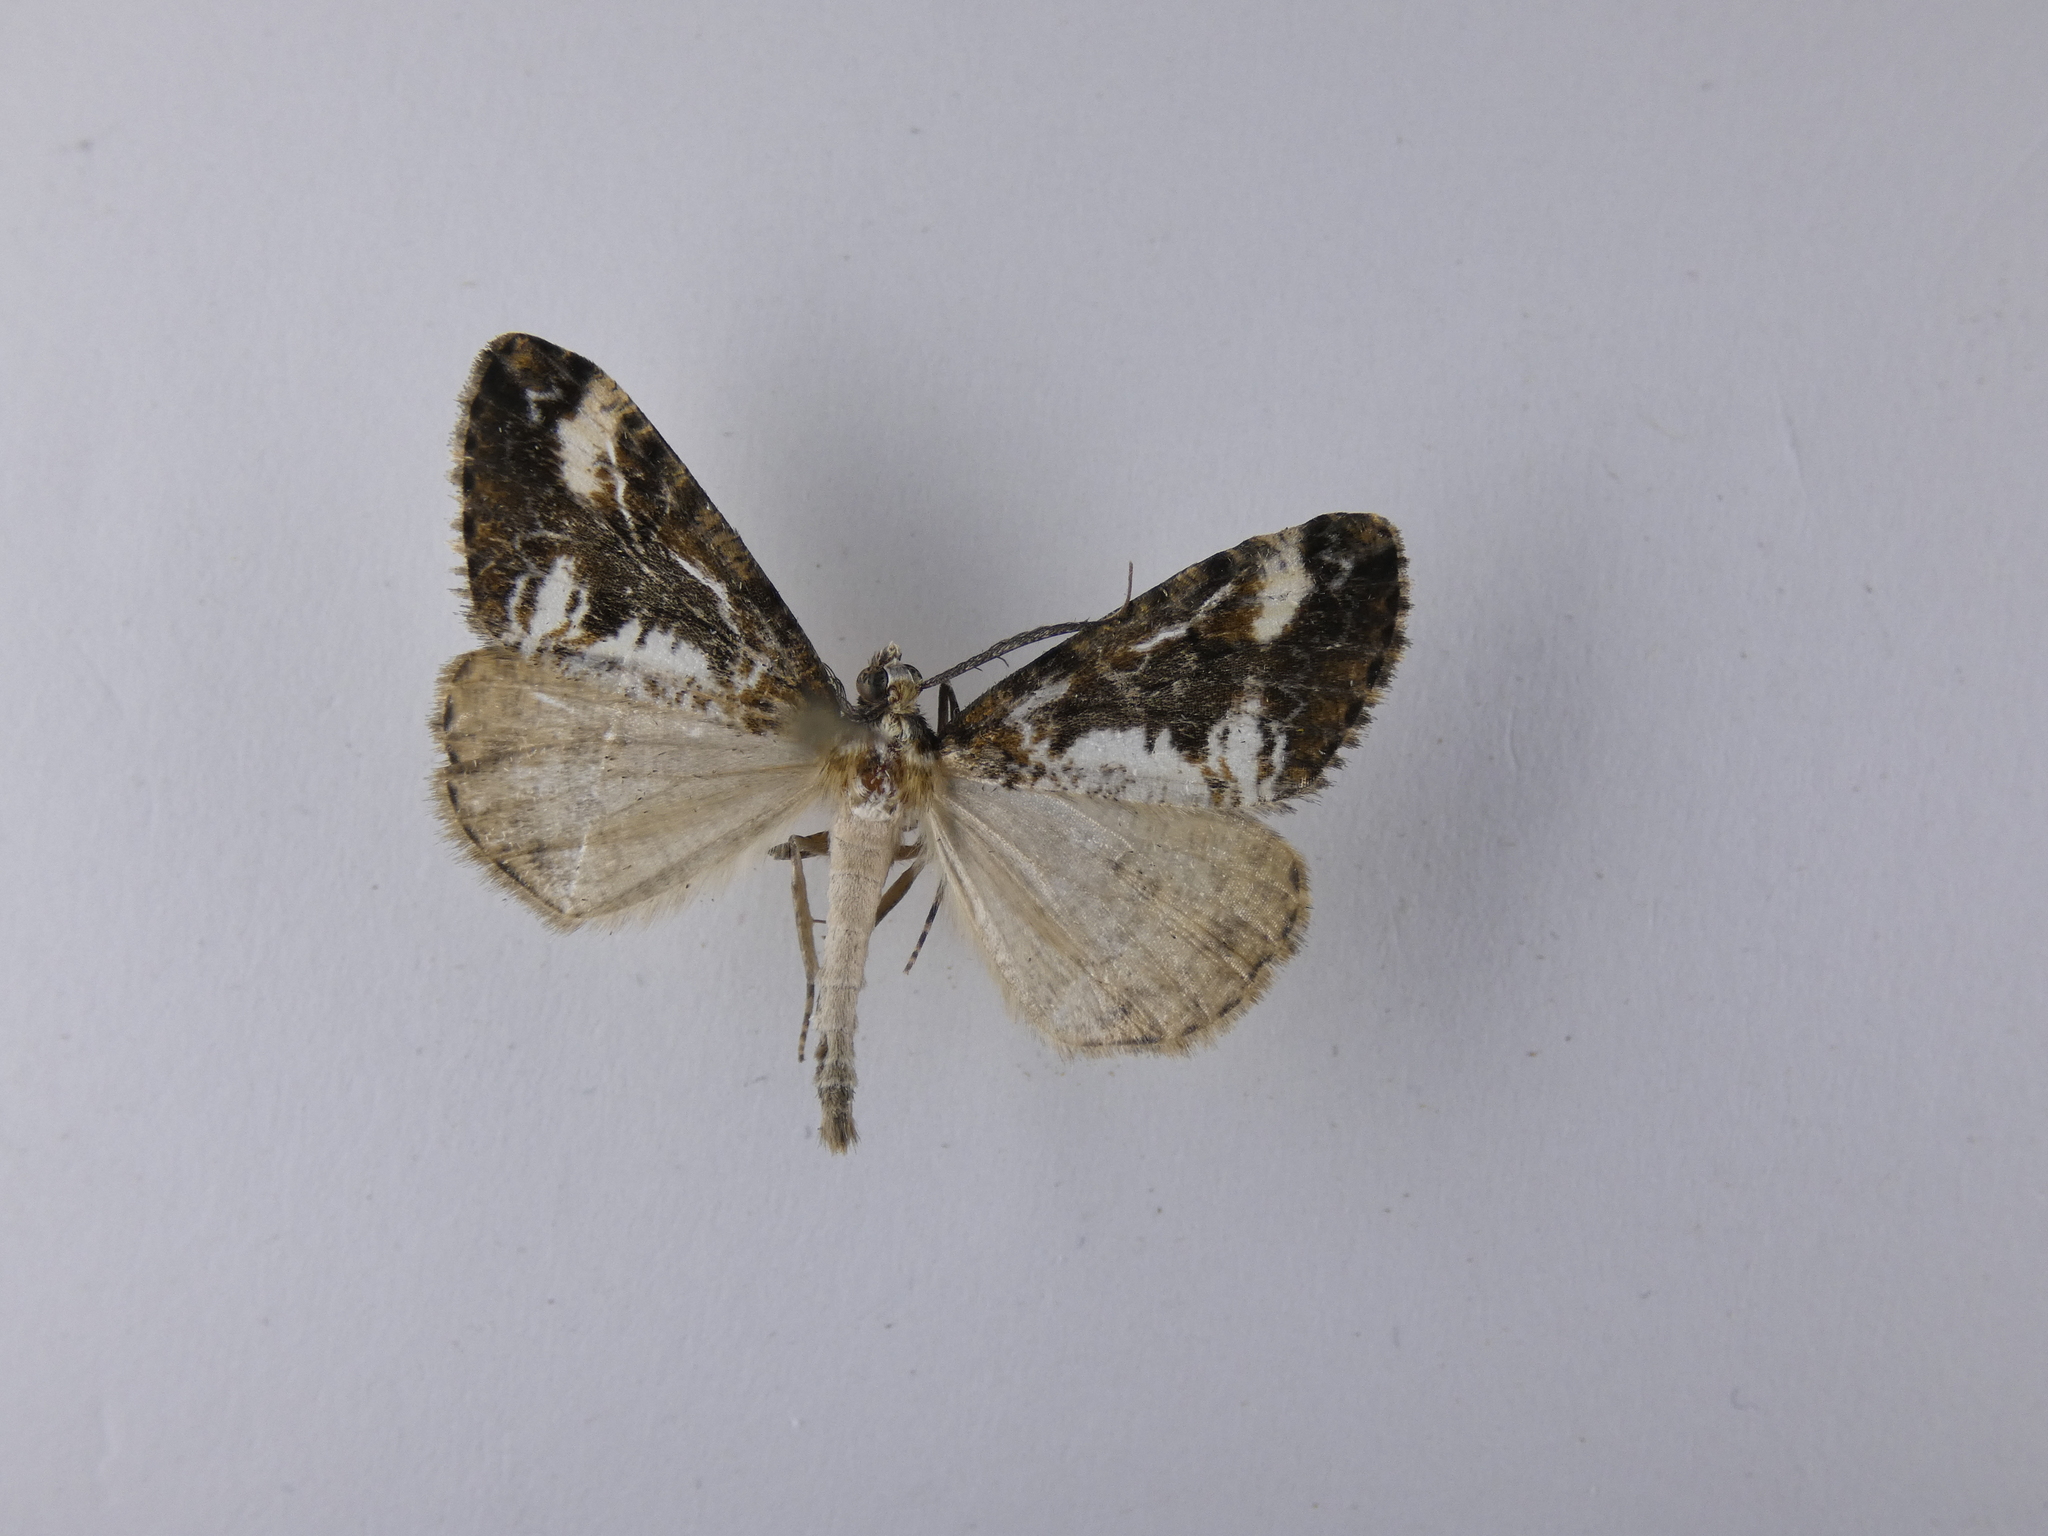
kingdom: Animalia
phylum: Arthropoda
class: Insecta
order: Lepidoptera
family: Geometridae
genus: Pseudocoremia
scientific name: Pseudocoremia leucelaea
